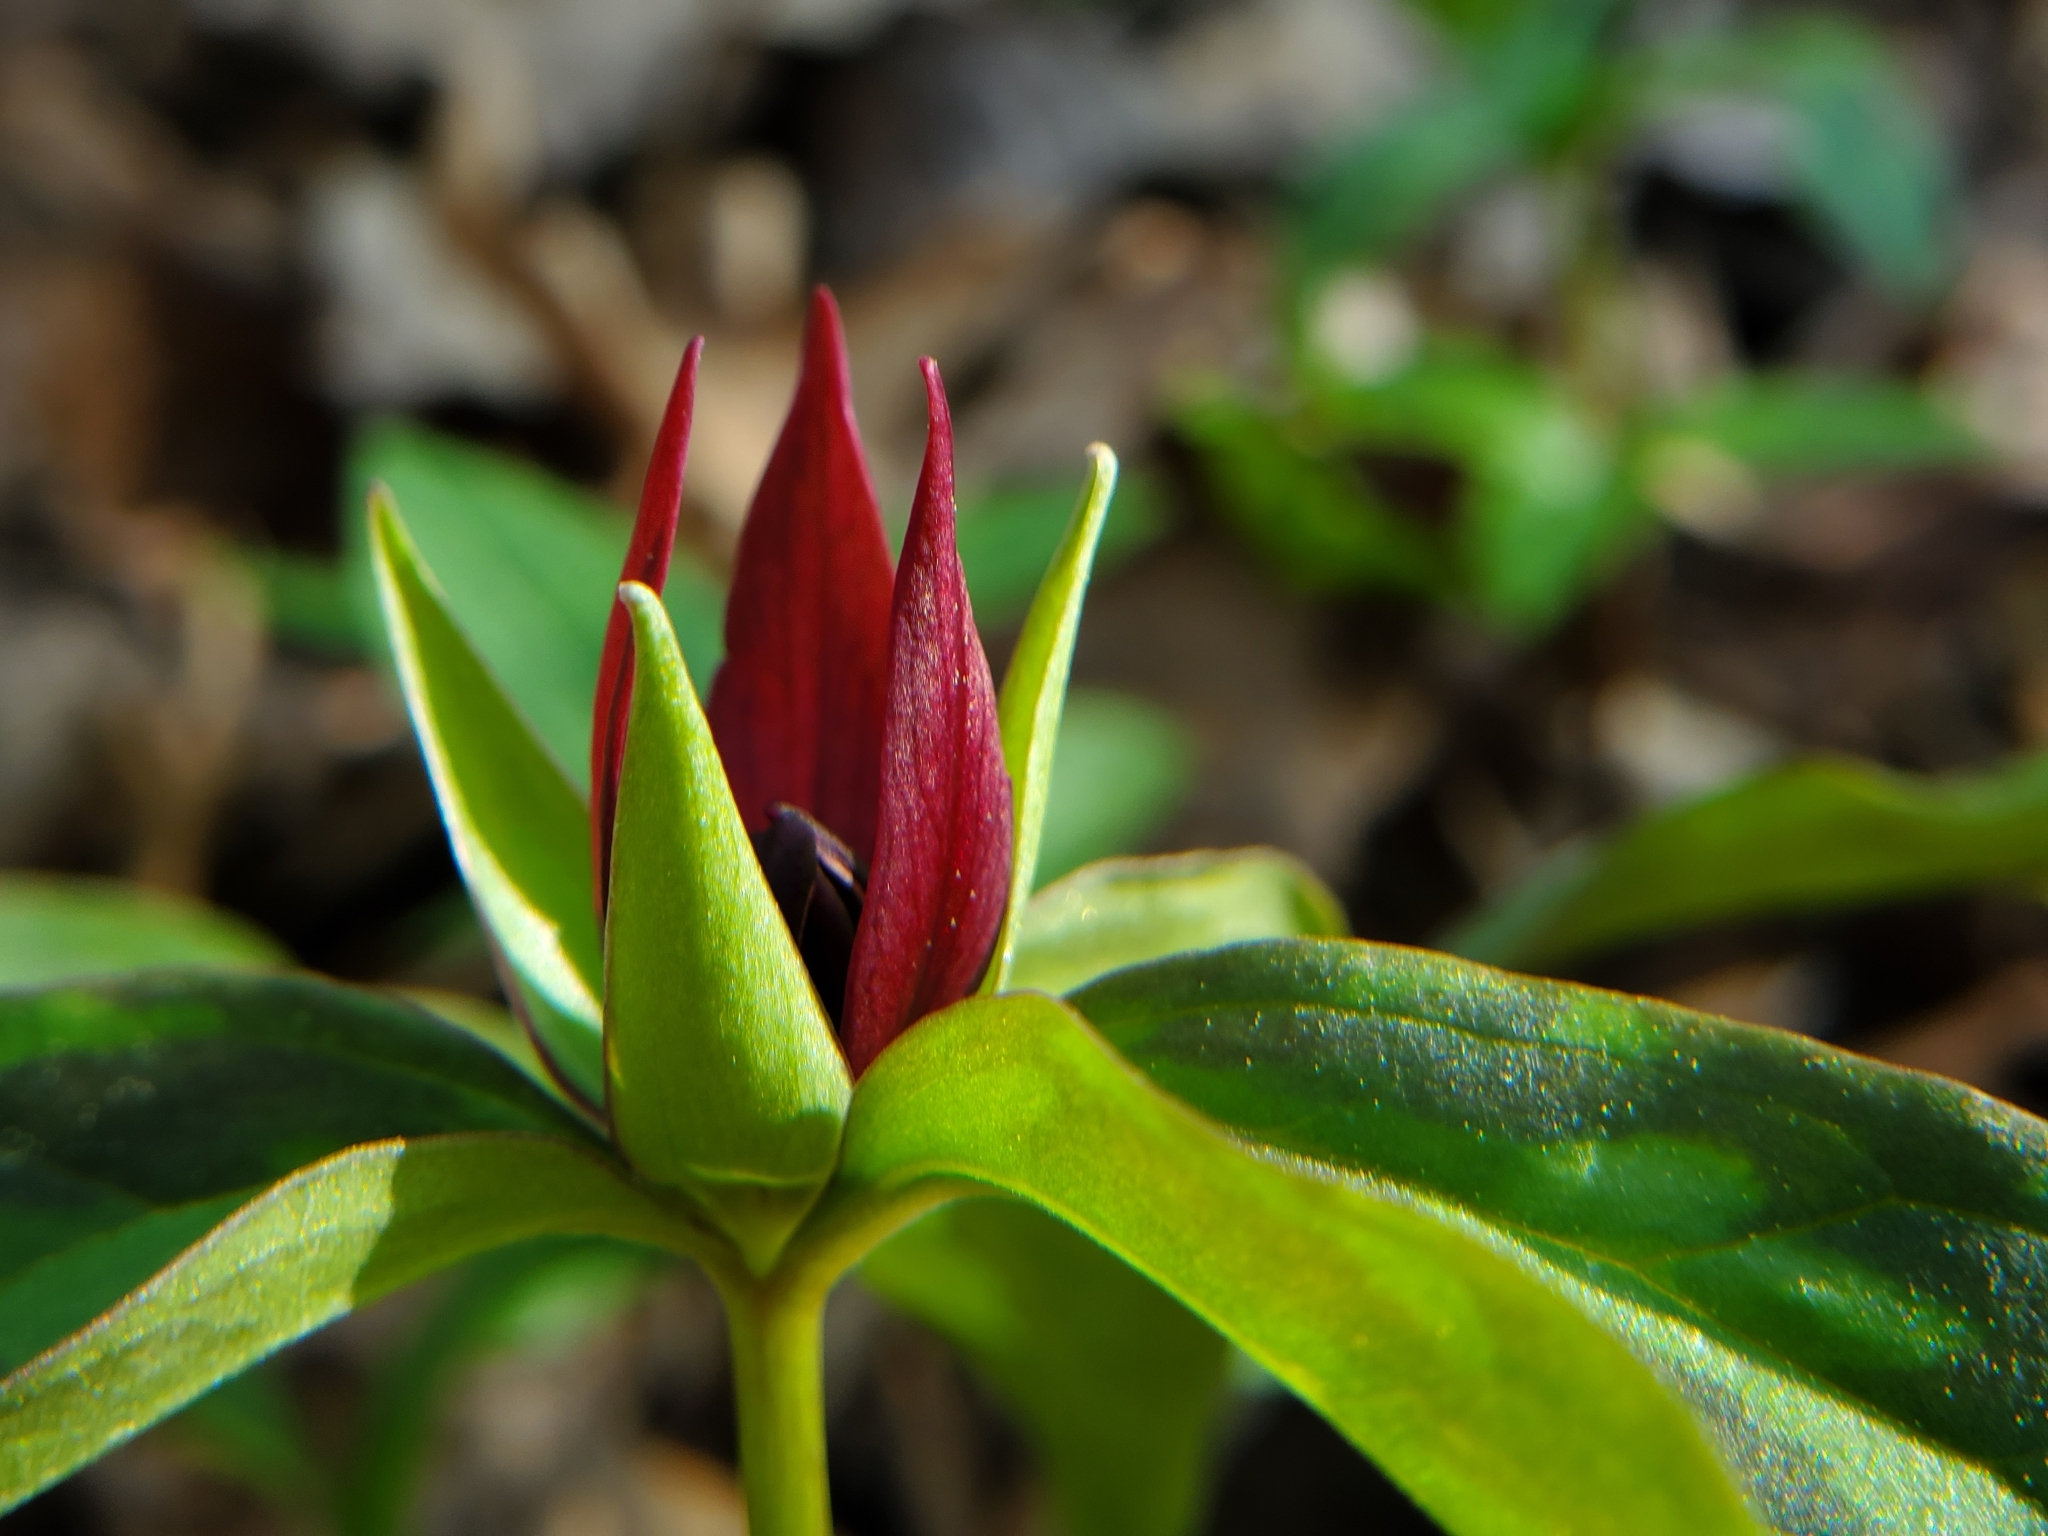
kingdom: Plantae
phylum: Tracheophyta
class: Liliopsida
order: Liliales
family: Melanthiaceae
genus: Trillium
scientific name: Trillium recurvatum
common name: Bloody butcher
